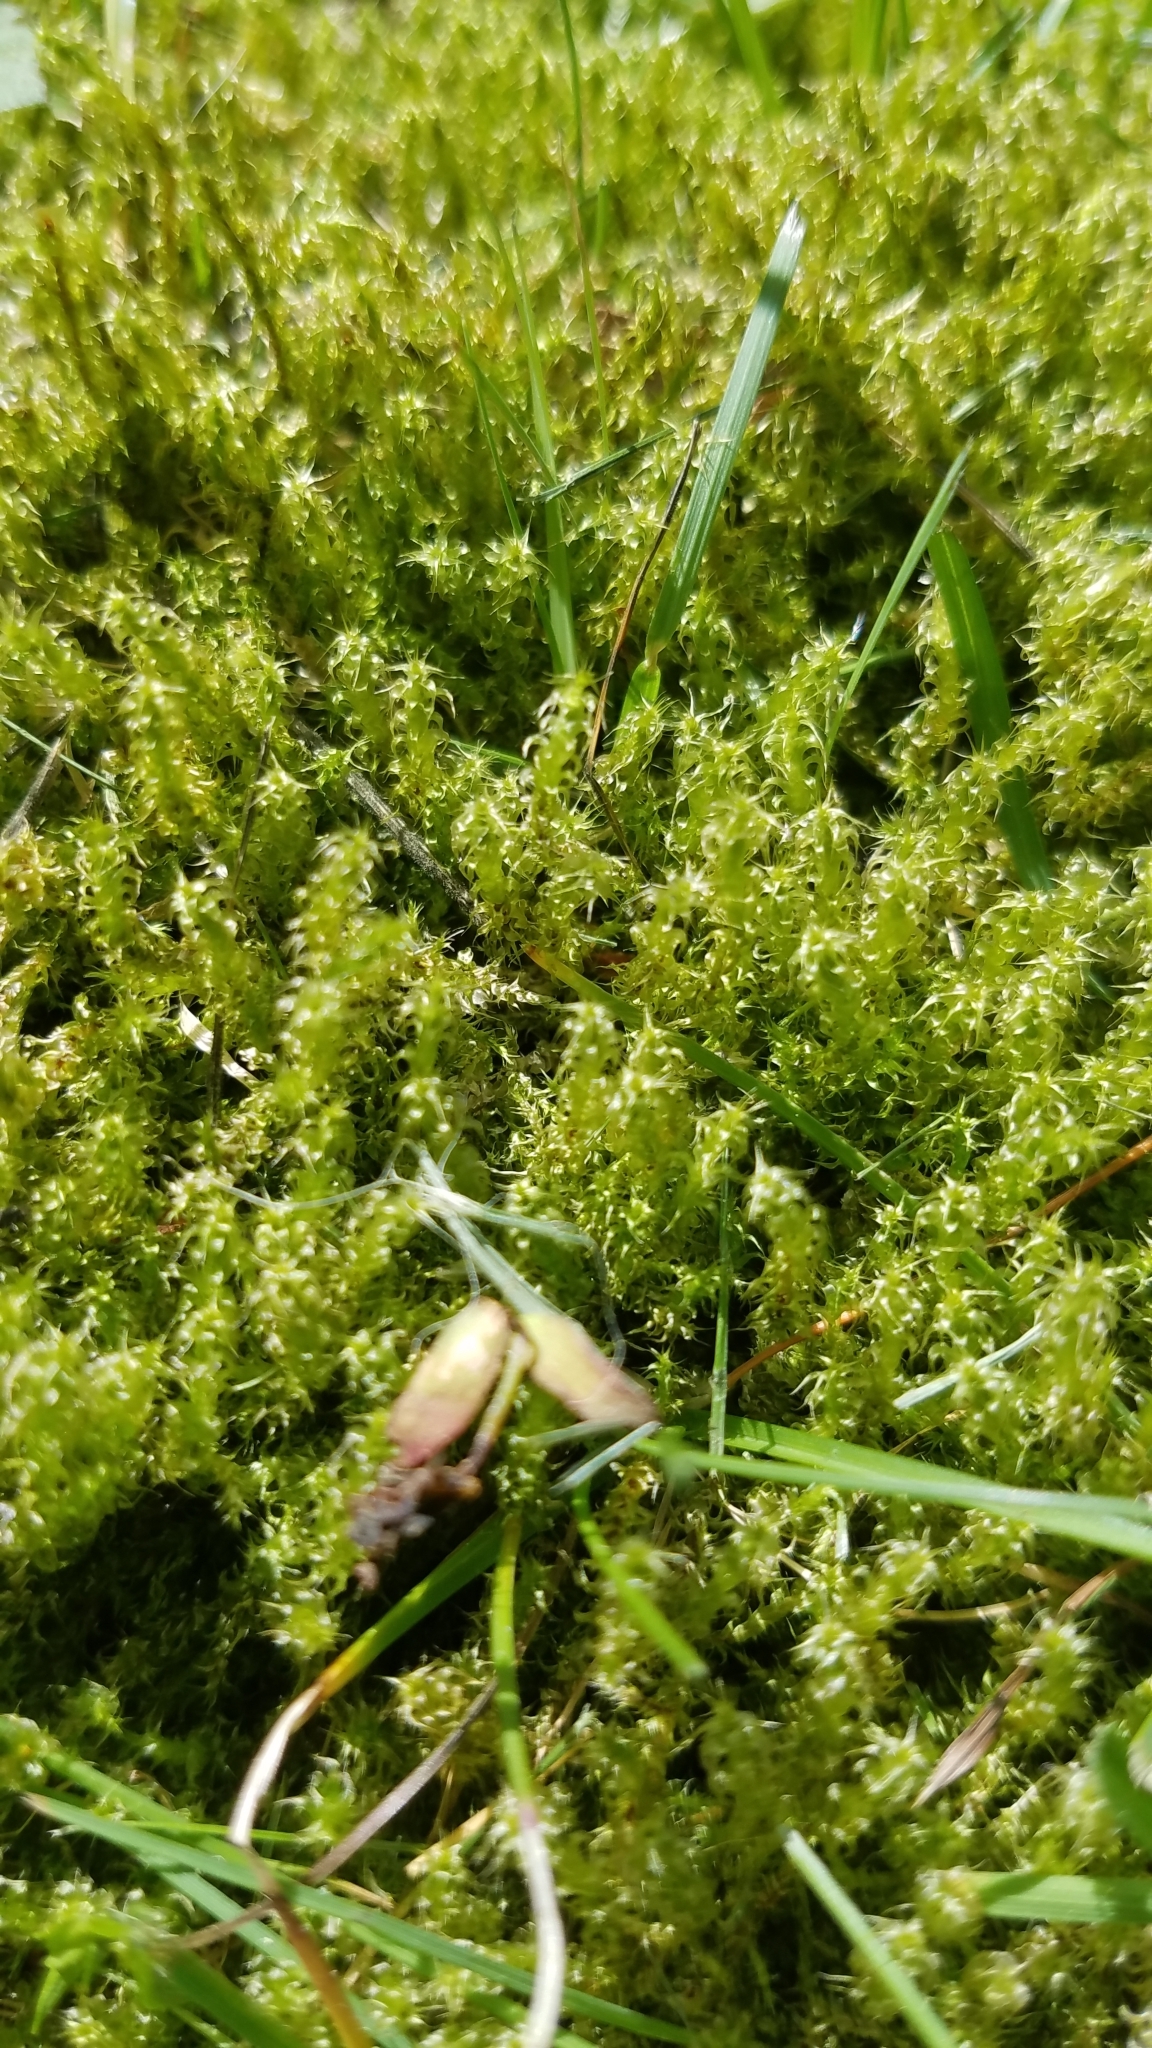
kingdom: Plantae
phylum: Bryophyta
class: Bryopsida
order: Hypnales
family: Hylocomiaceae
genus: Rhytidiadelphus
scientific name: Rhytidiadelphus squarrosus
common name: Springy turf-moss
